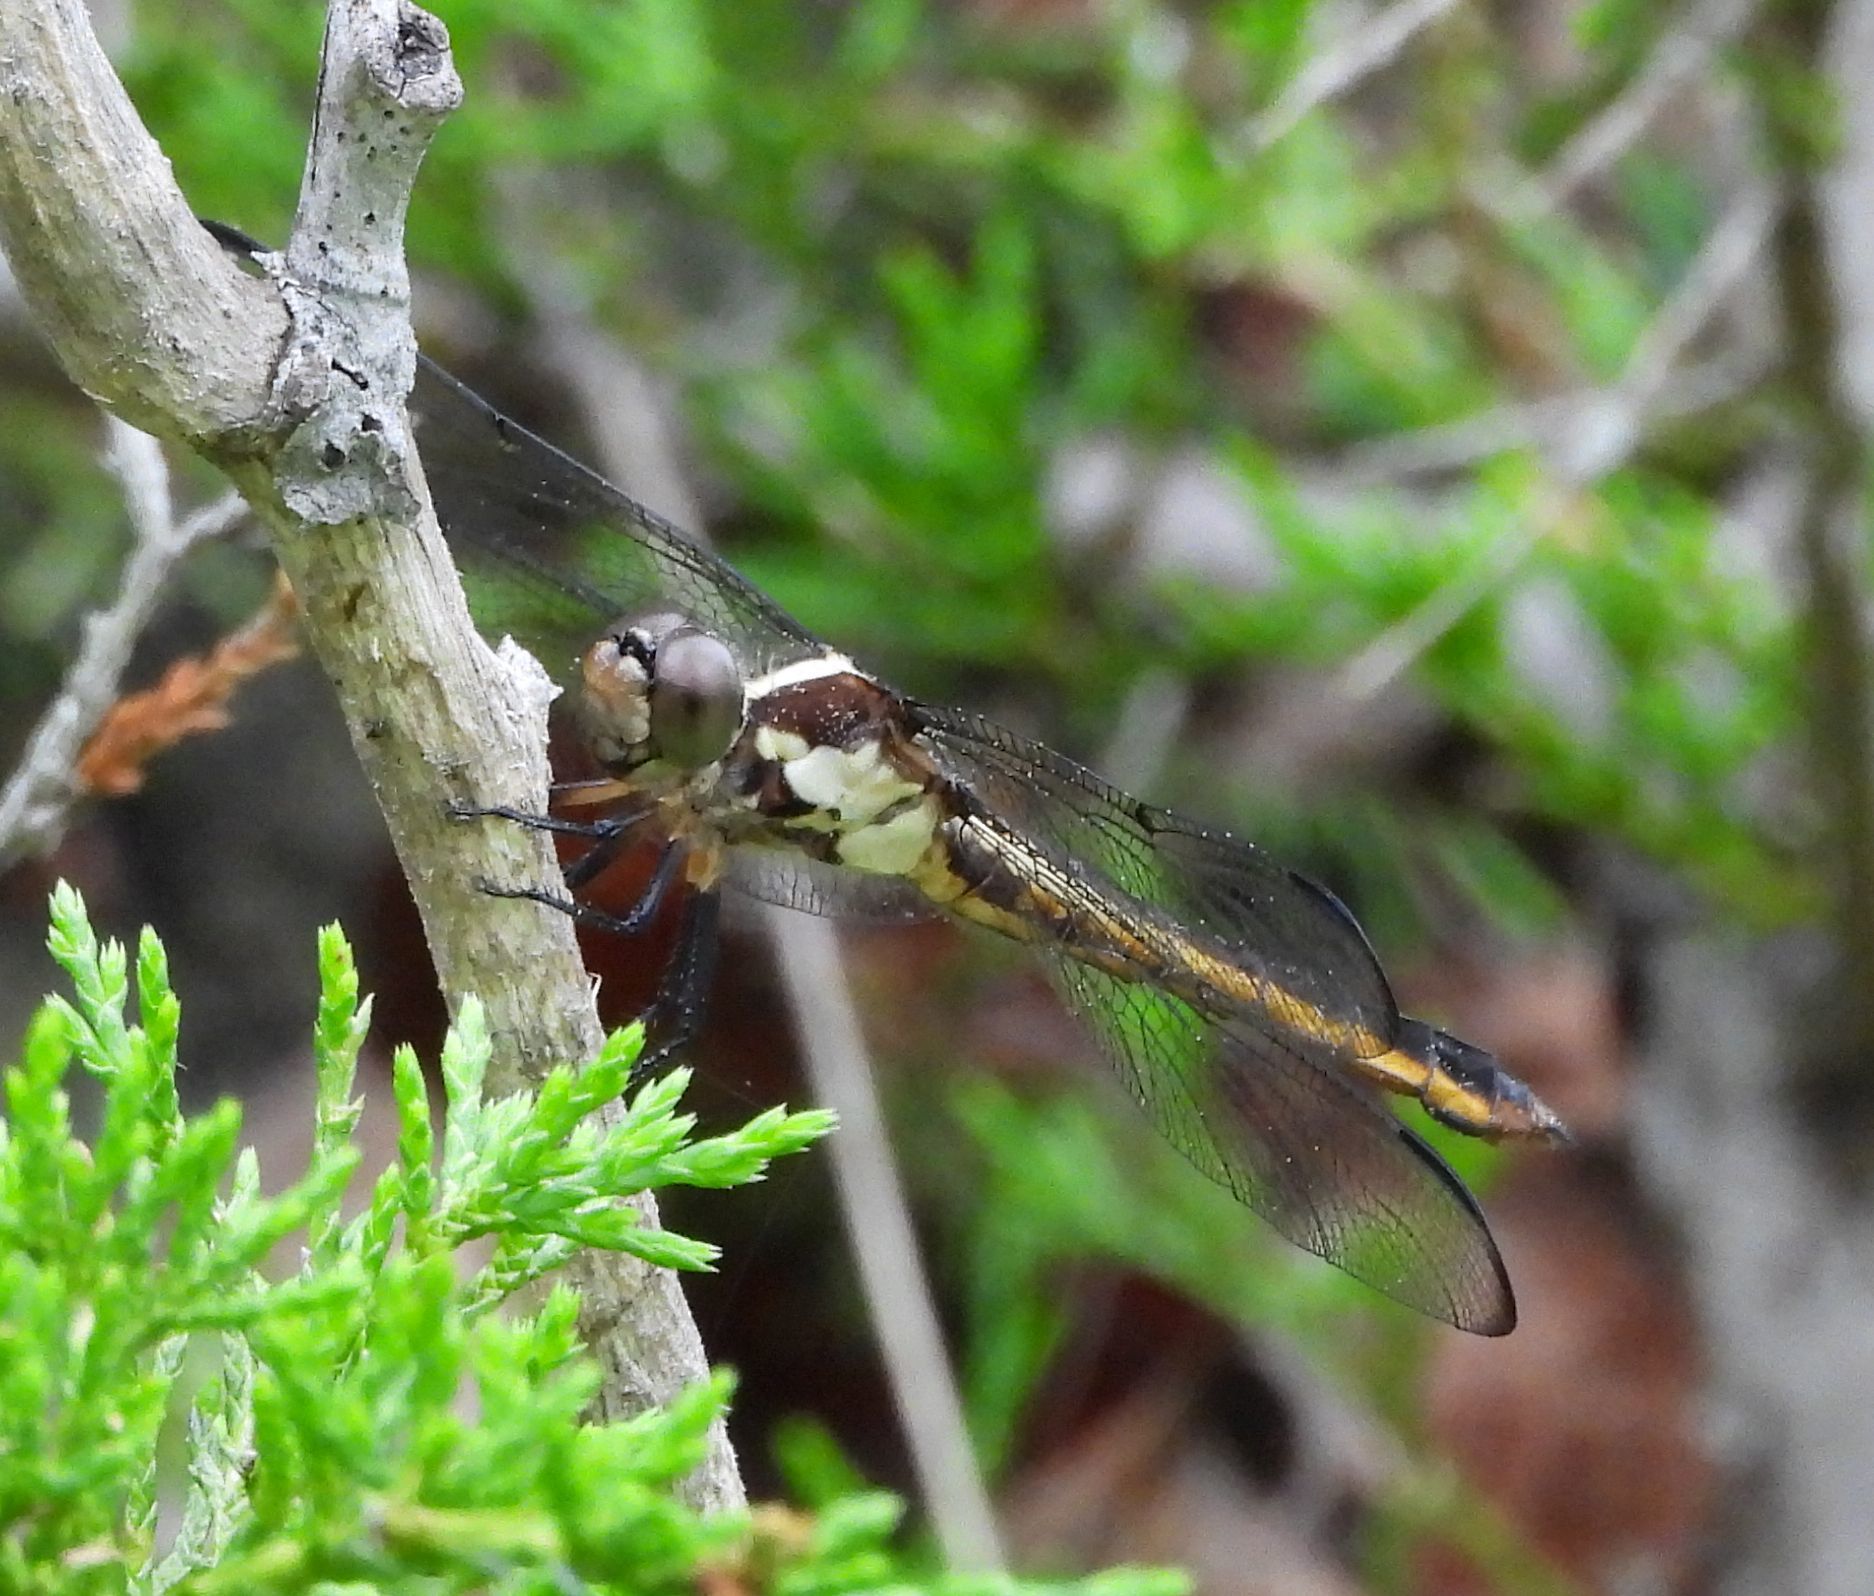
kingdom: Animalia
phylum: Arthropoda
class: Insecta
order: Odonata
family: Libellulidae
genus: Libellula
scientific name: Libellula incesta
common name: Slaty skimmer
